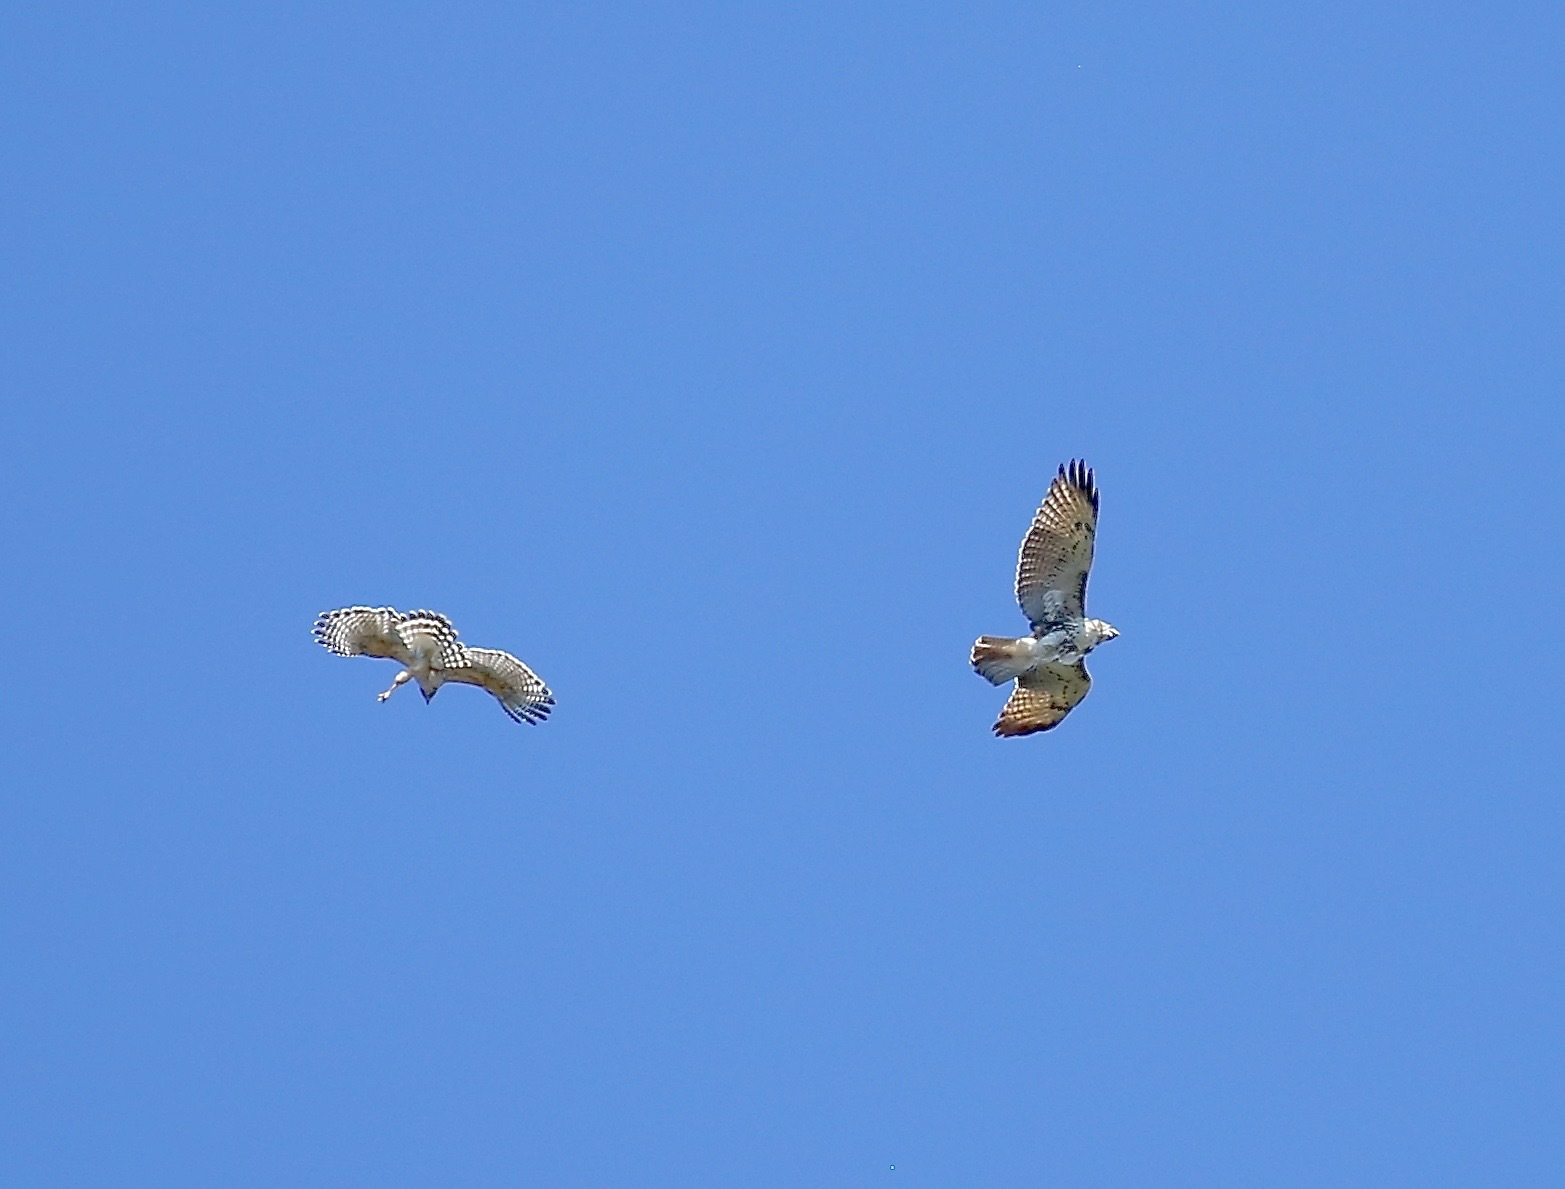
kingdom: Animalia
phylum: Chordata
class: Aves
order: Accipitriformes
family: Accipitridae
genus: Buteo
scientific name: Buteo jamaicensis
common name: Red-tailed hawk
